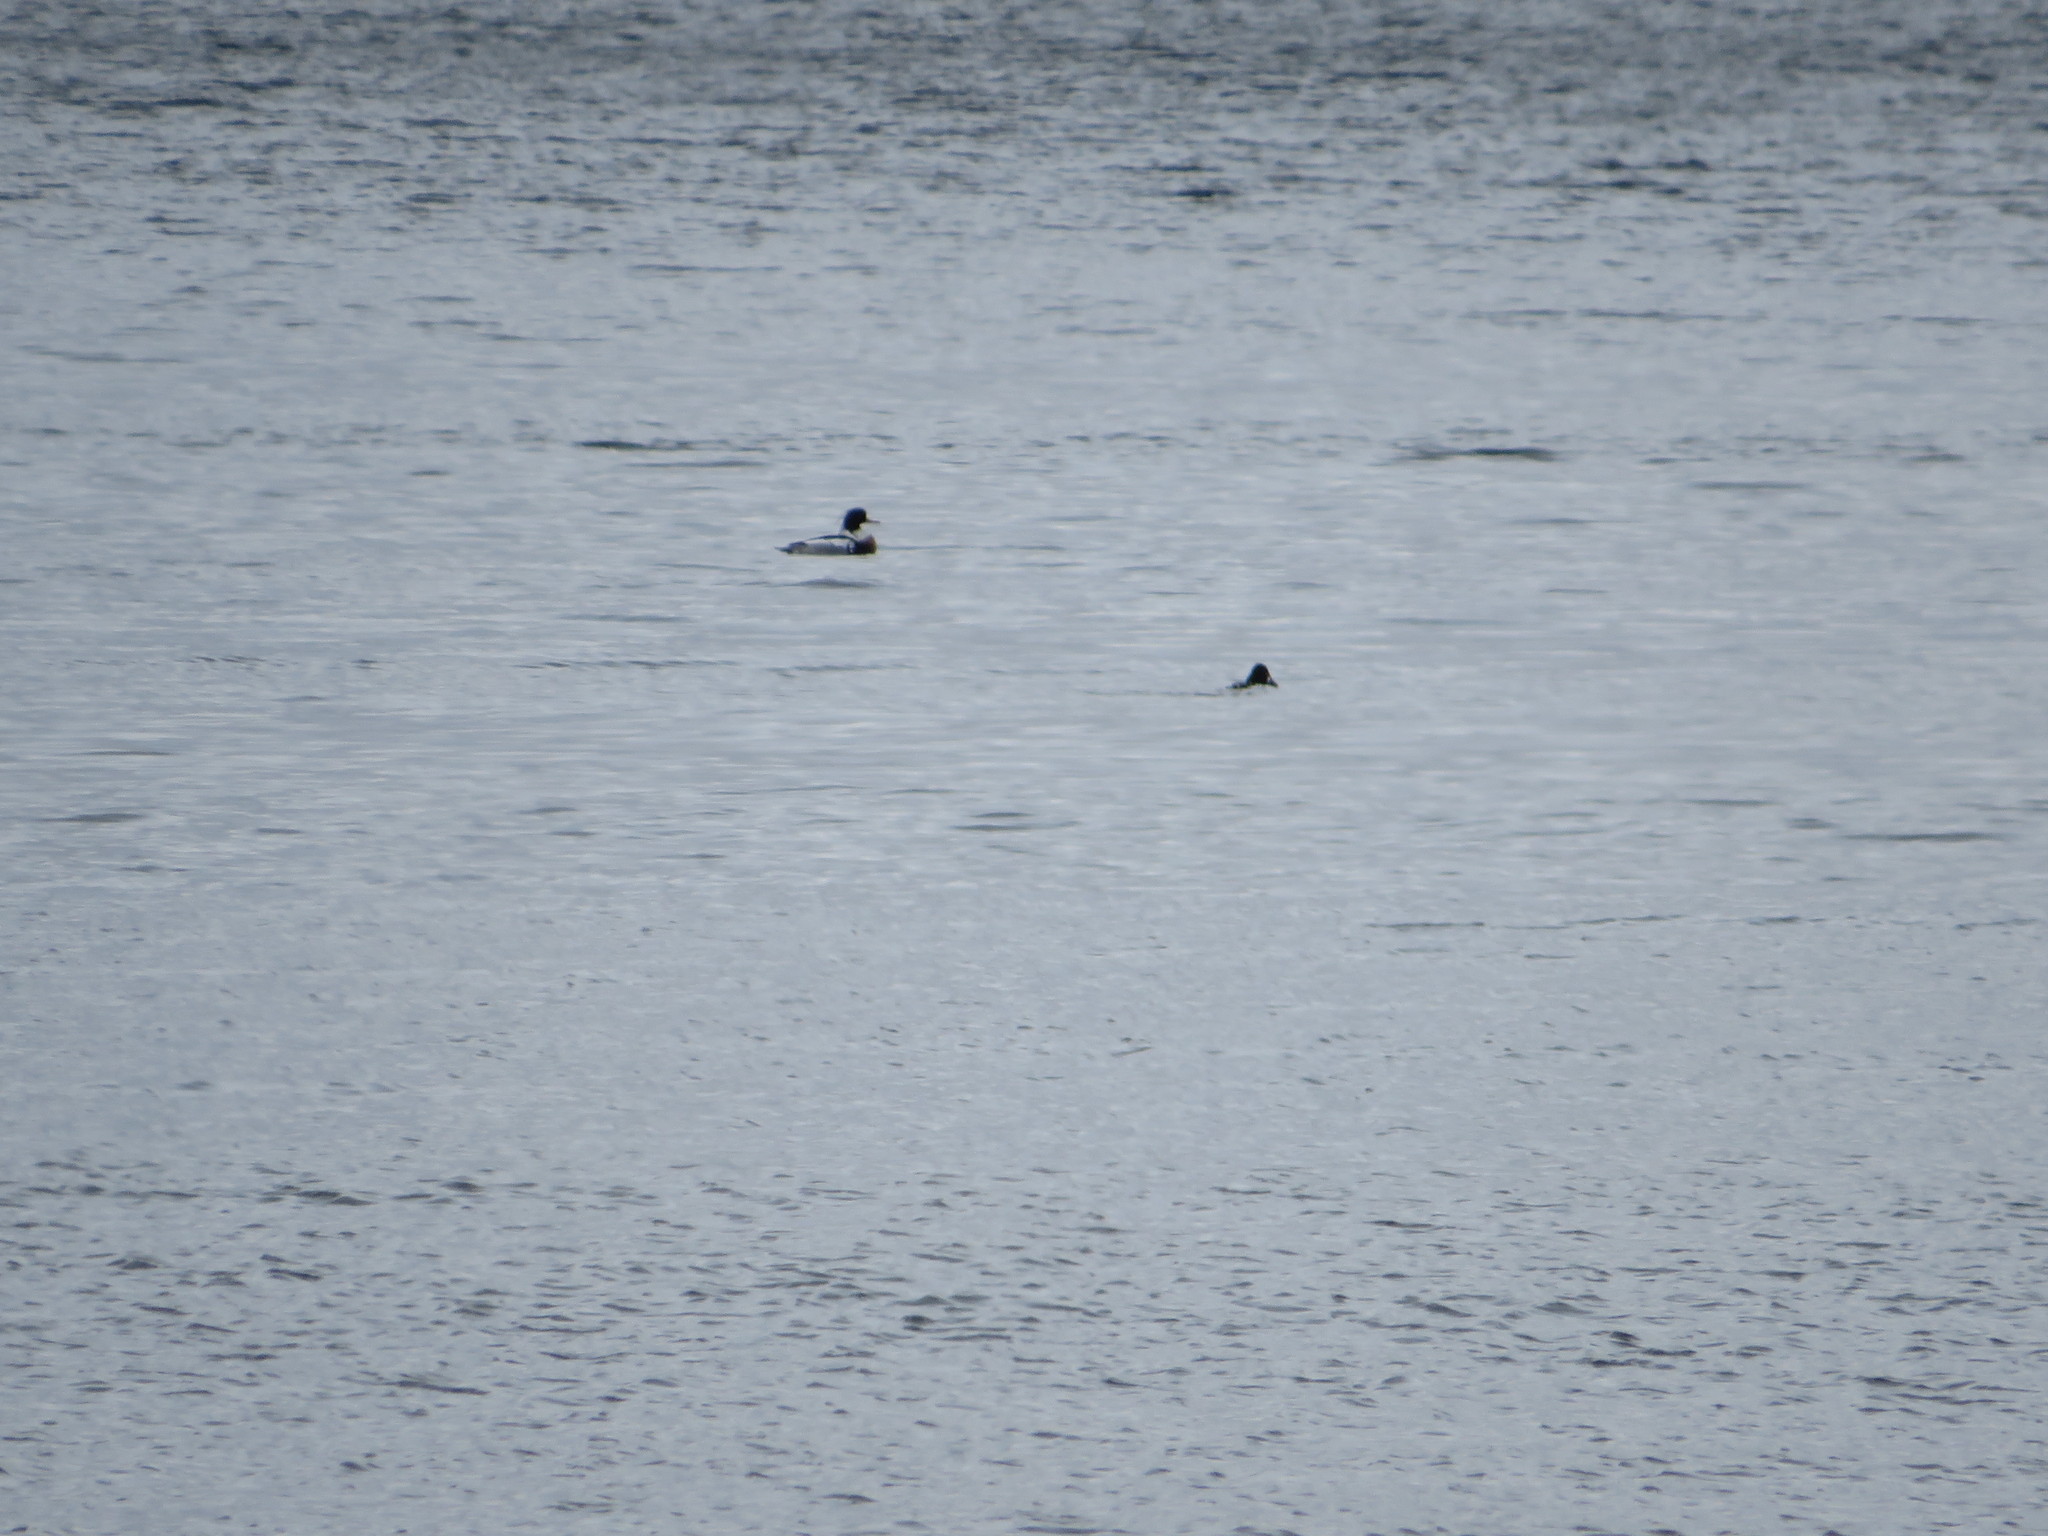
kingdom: Animalia
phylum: Chordata
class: Aves
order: Anseriformes
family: Anatidae
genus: Mergus
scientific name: Mergus serrator
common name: Red-breasted merganser
